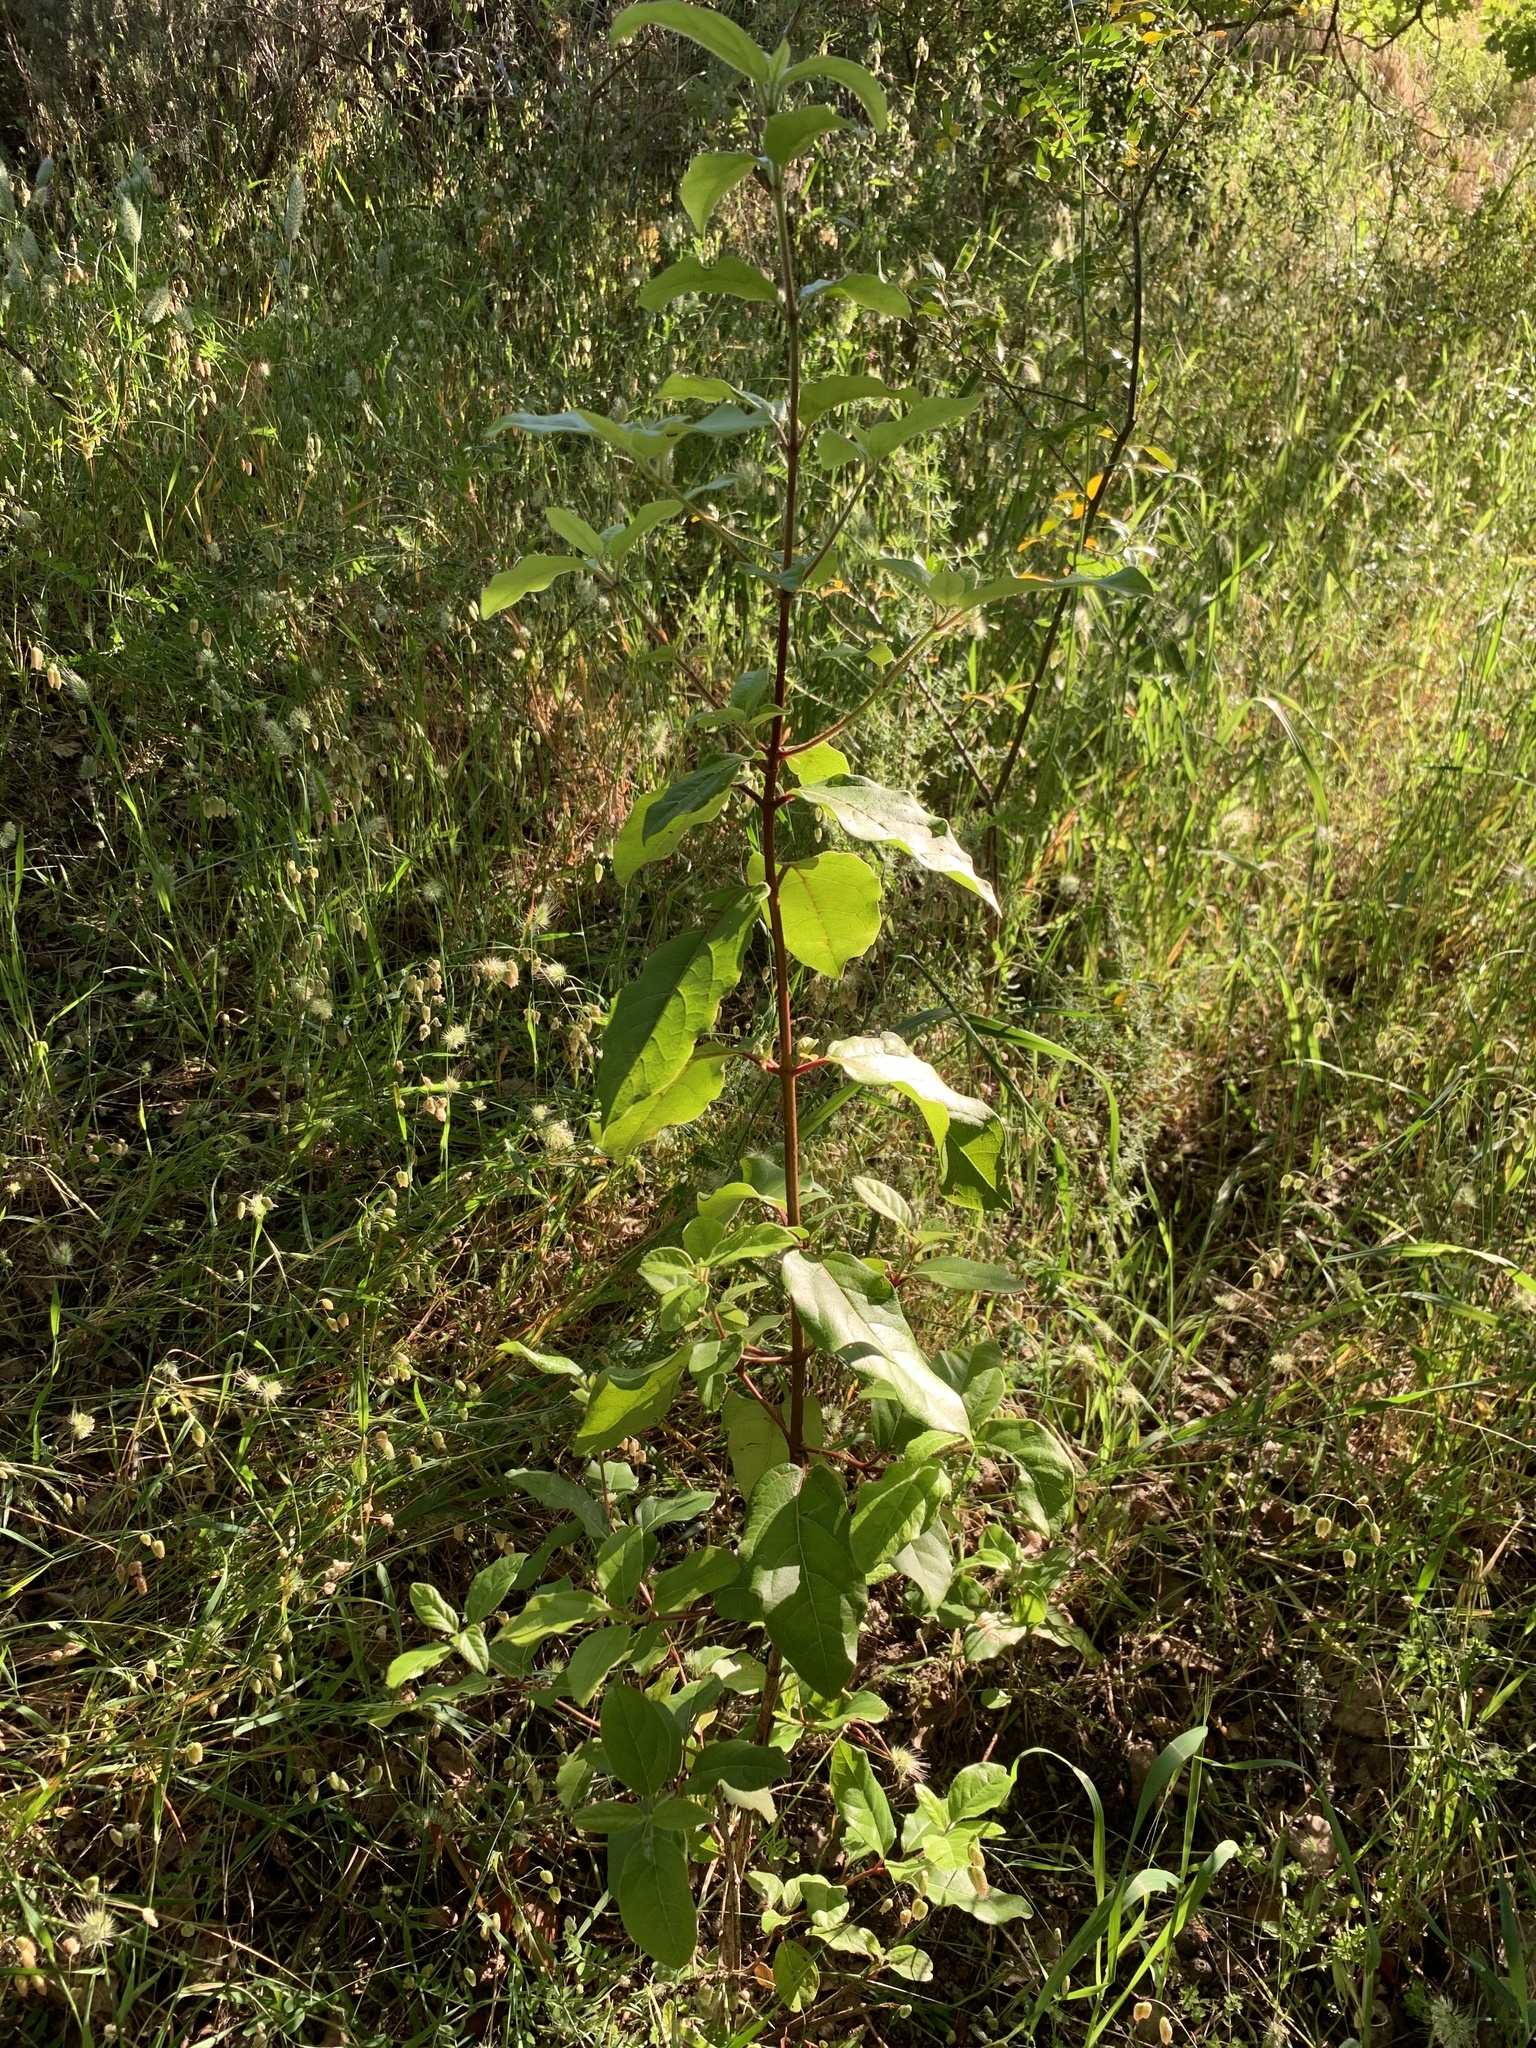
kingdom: Plantae
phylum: Tracheophyta
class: Magnoliopsida
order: Dipsacales
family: Viburnaceae
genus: Viburnum
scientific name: Viburnum tinus
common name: Laurustinus
